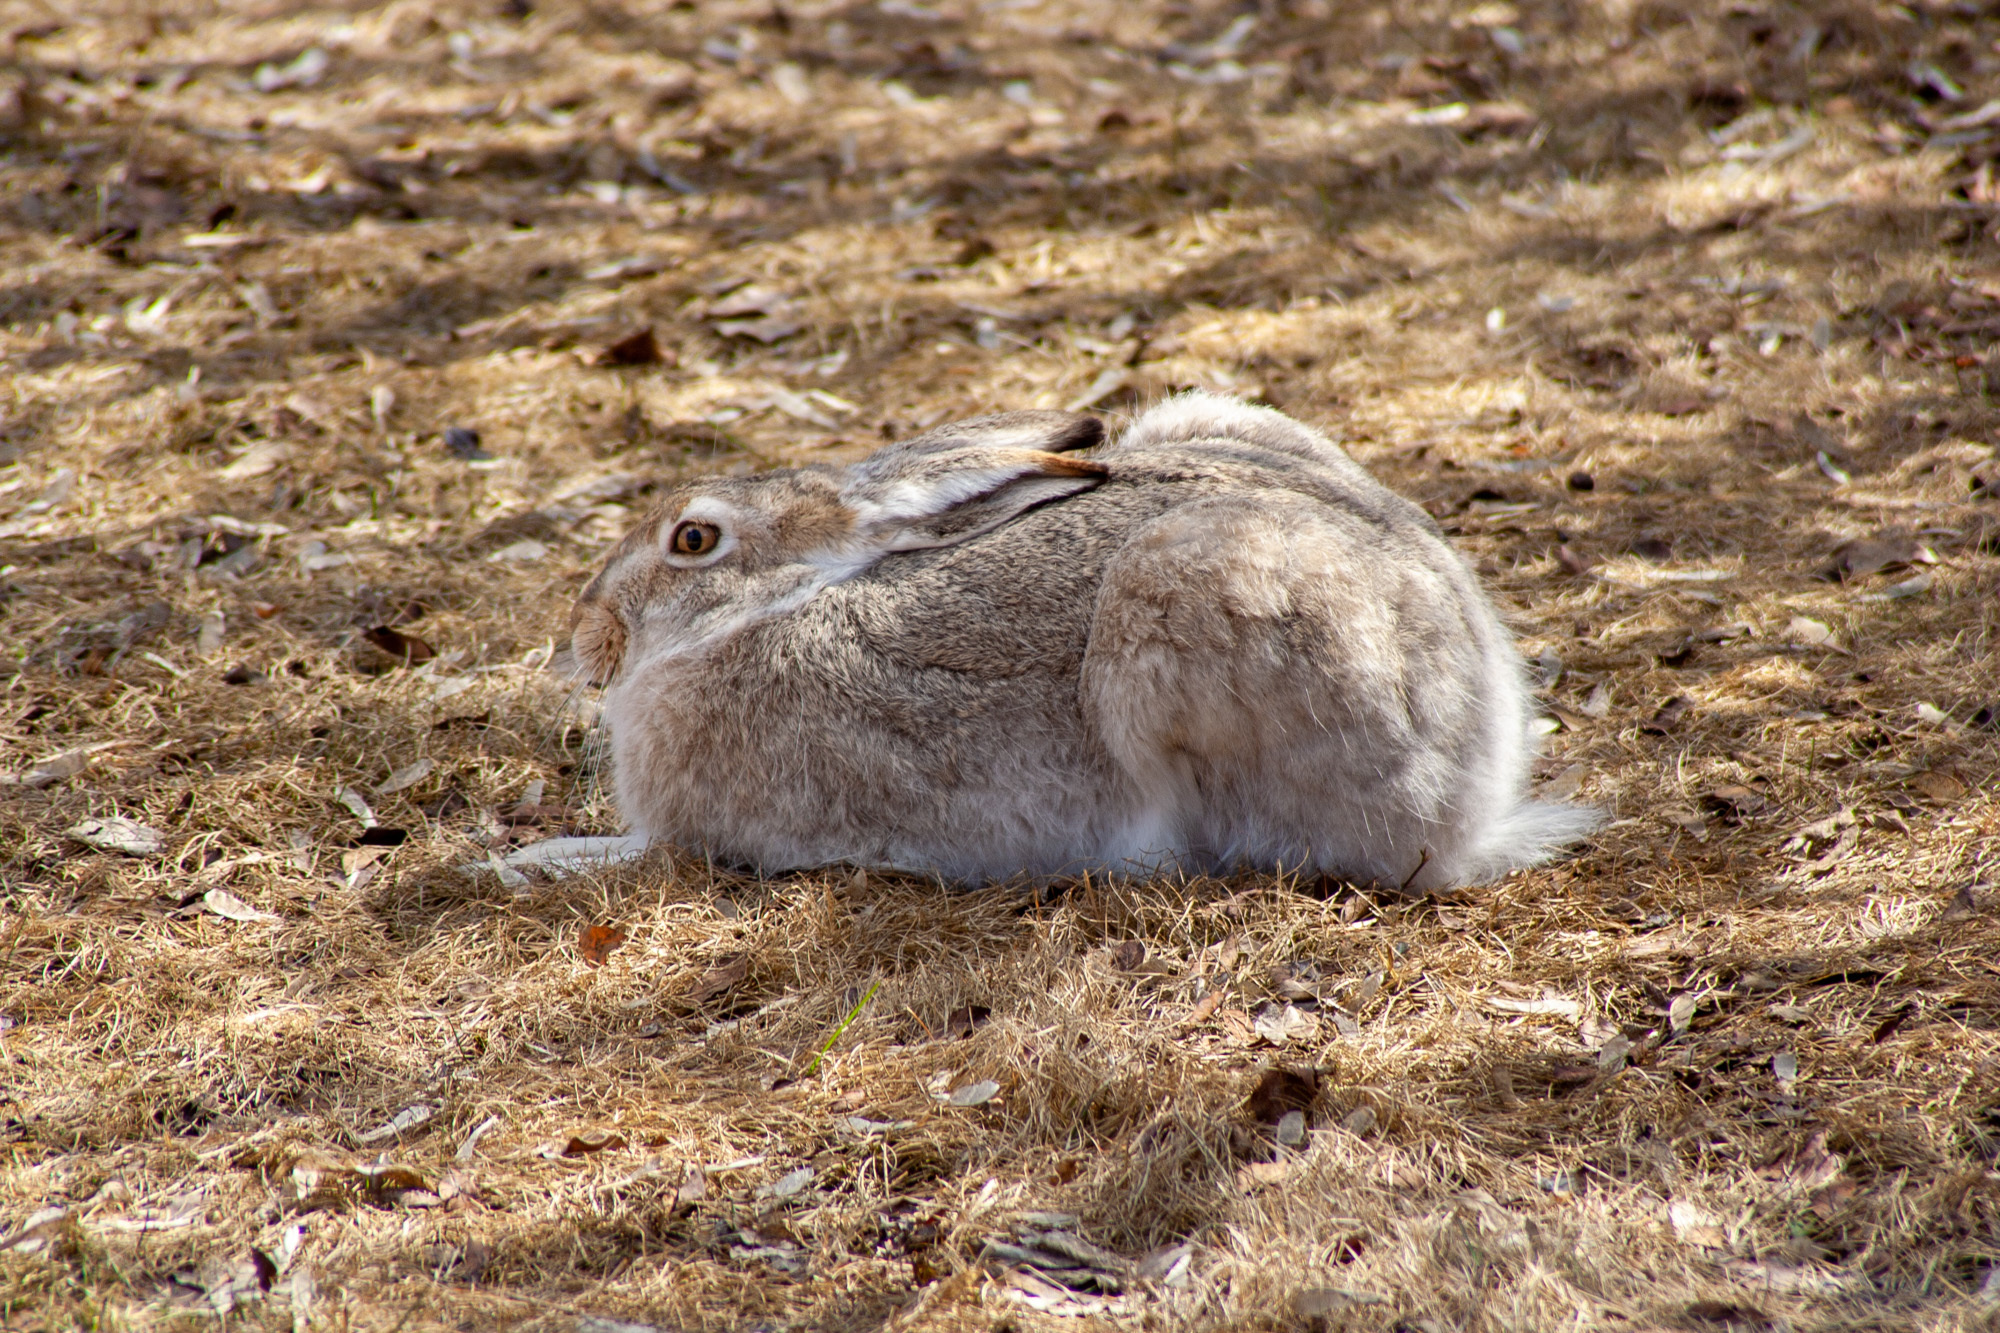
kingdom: Animalia
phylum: Chordata
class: Mammalia
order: Lagomorpha
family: Leporidae
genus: Lepus
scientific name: Lepus townsendii
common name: White-tailed jackrabbit
